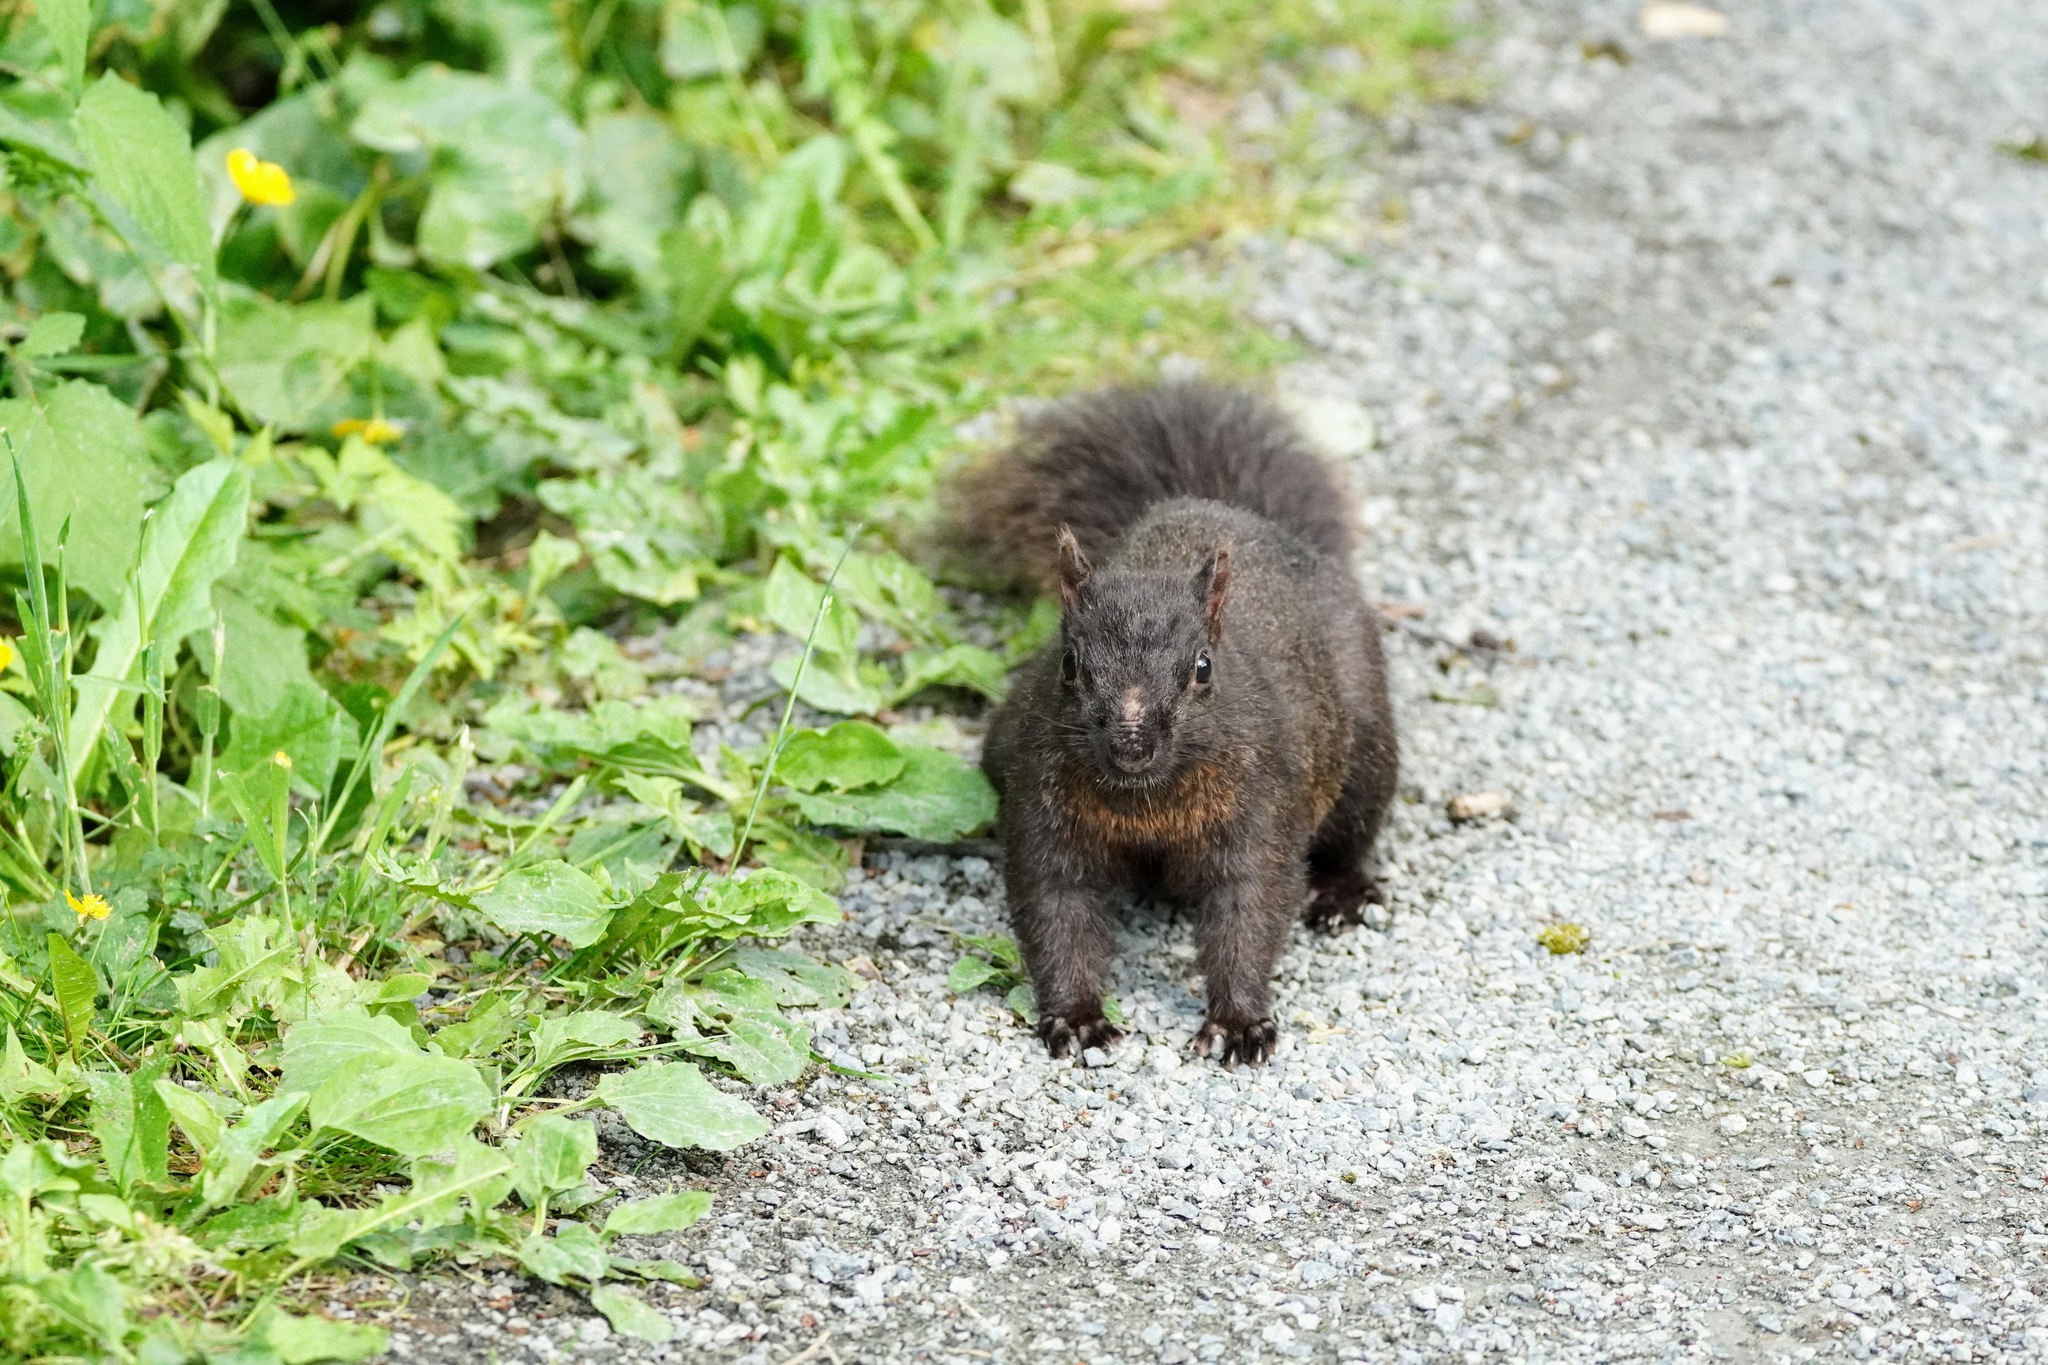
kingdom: Animalia
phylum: Chordata
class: Mammalia
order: Rodentia
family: Sciuridae
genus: Sciurus
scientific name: Sciurus carolinensis
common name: Eastern gray squirrel
